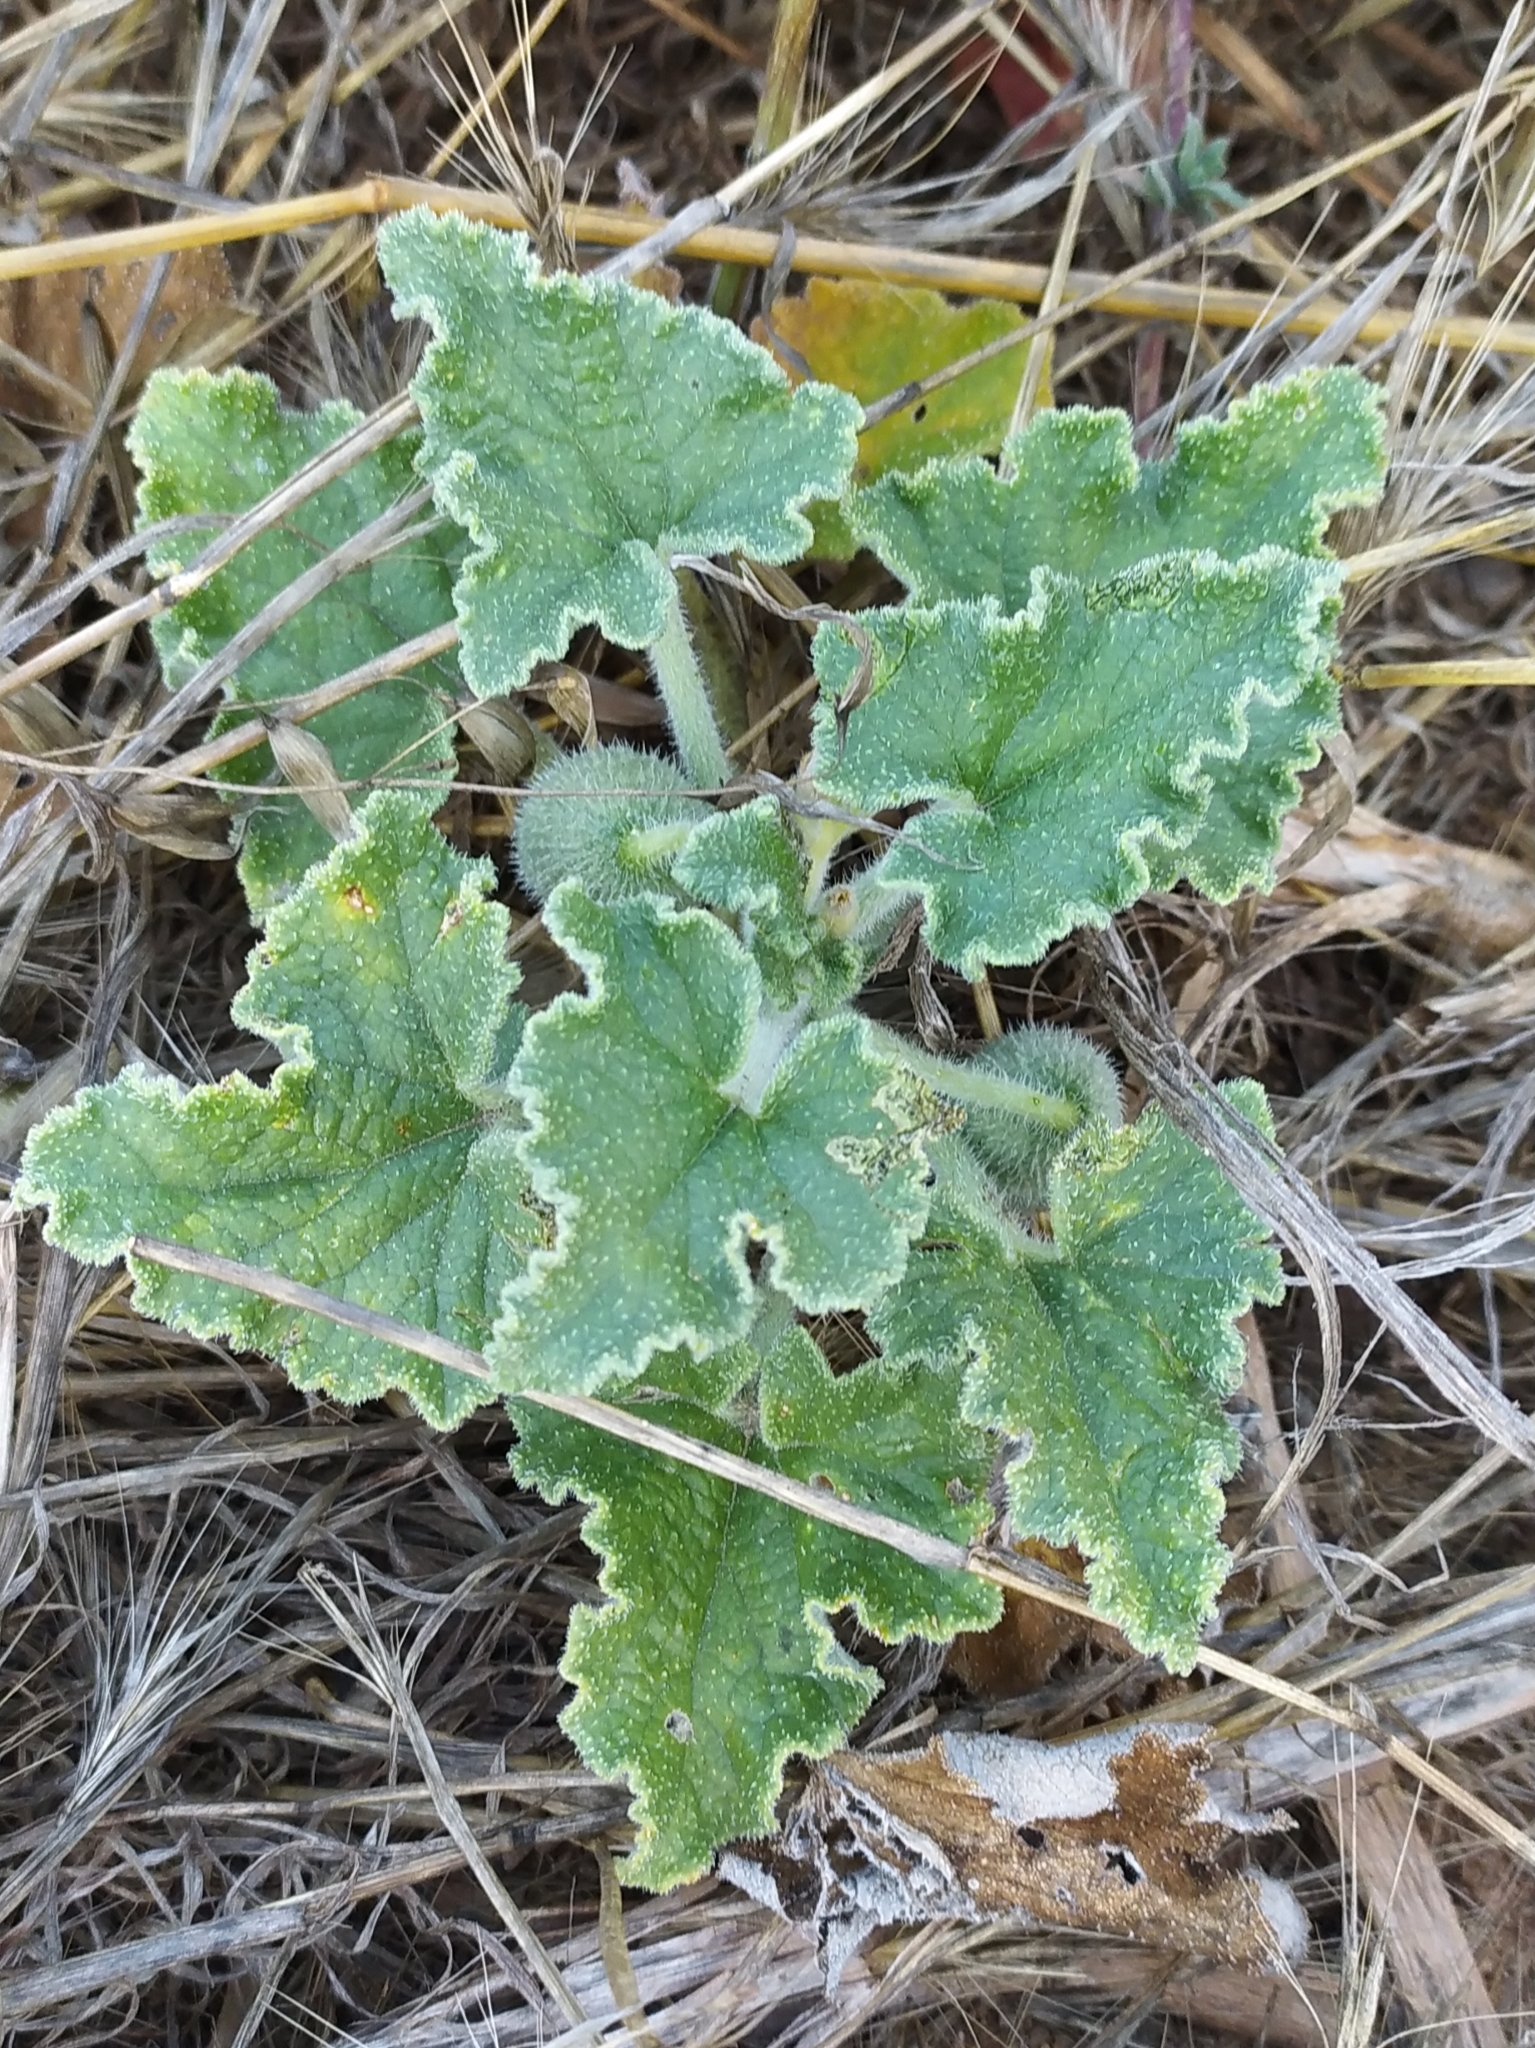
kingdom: Plantae
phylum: Tracheophyta
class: Magnoliopsida
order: Cucurbitales
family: Cucurbitaceae
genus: Ecballium
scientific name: Ecballium elaterium
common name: Squirting cucumber
